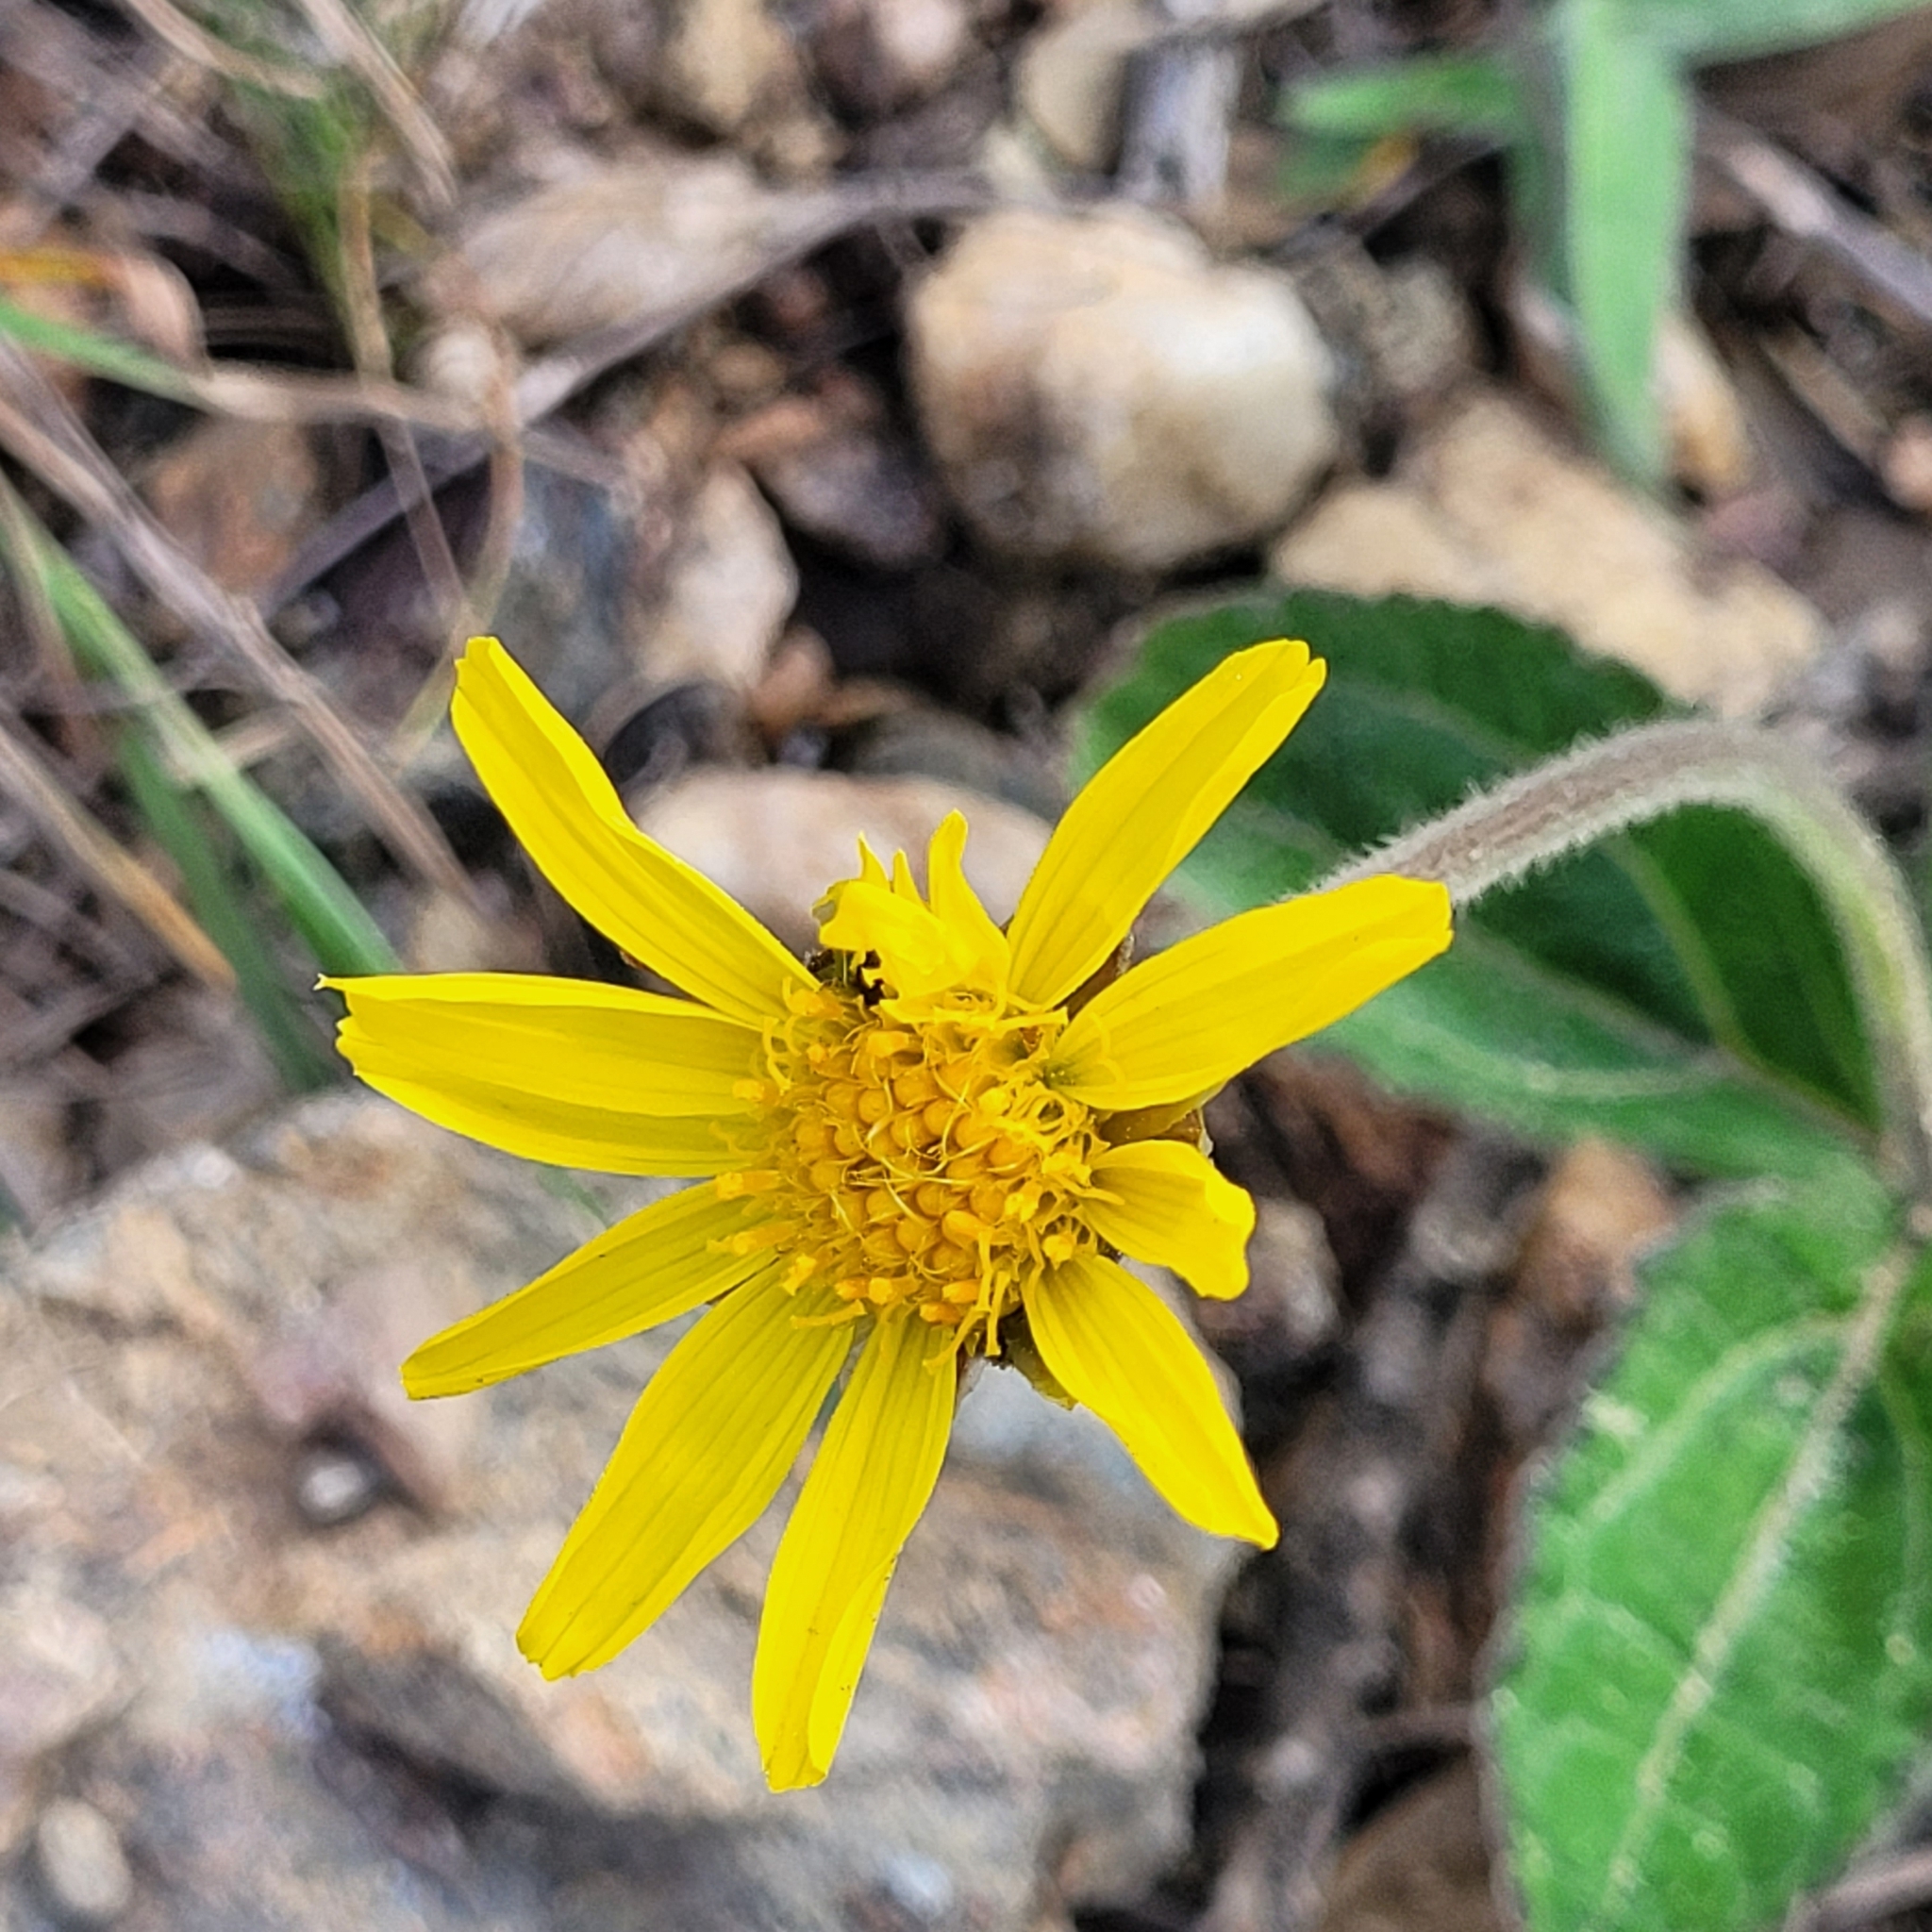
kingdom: Plantae
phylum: Tracheophyta
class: Magnoliopsida
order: Asterales
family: Asteraceae
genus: Calea
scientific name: Calea clausseniana
